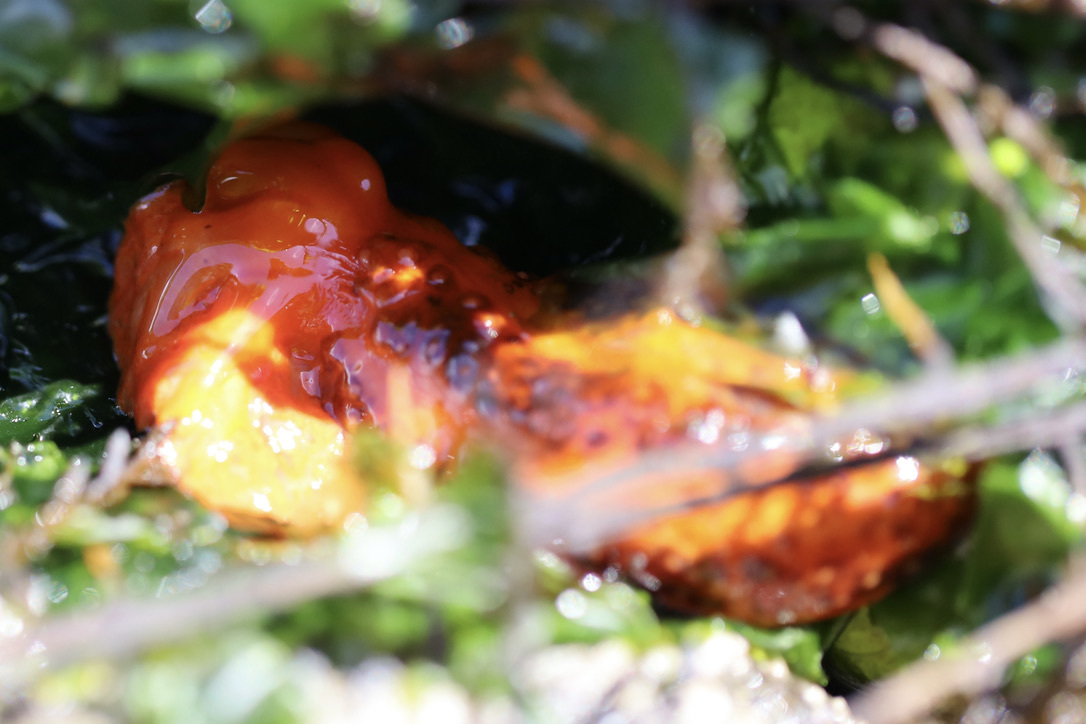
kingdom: Animalia
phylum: Echinodermata
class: Holothuroidea
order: Dendrochirotida
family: Cucumariidae
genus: Cucumaria
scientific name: Cucumaria miniata
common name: Orange sea cucumber
